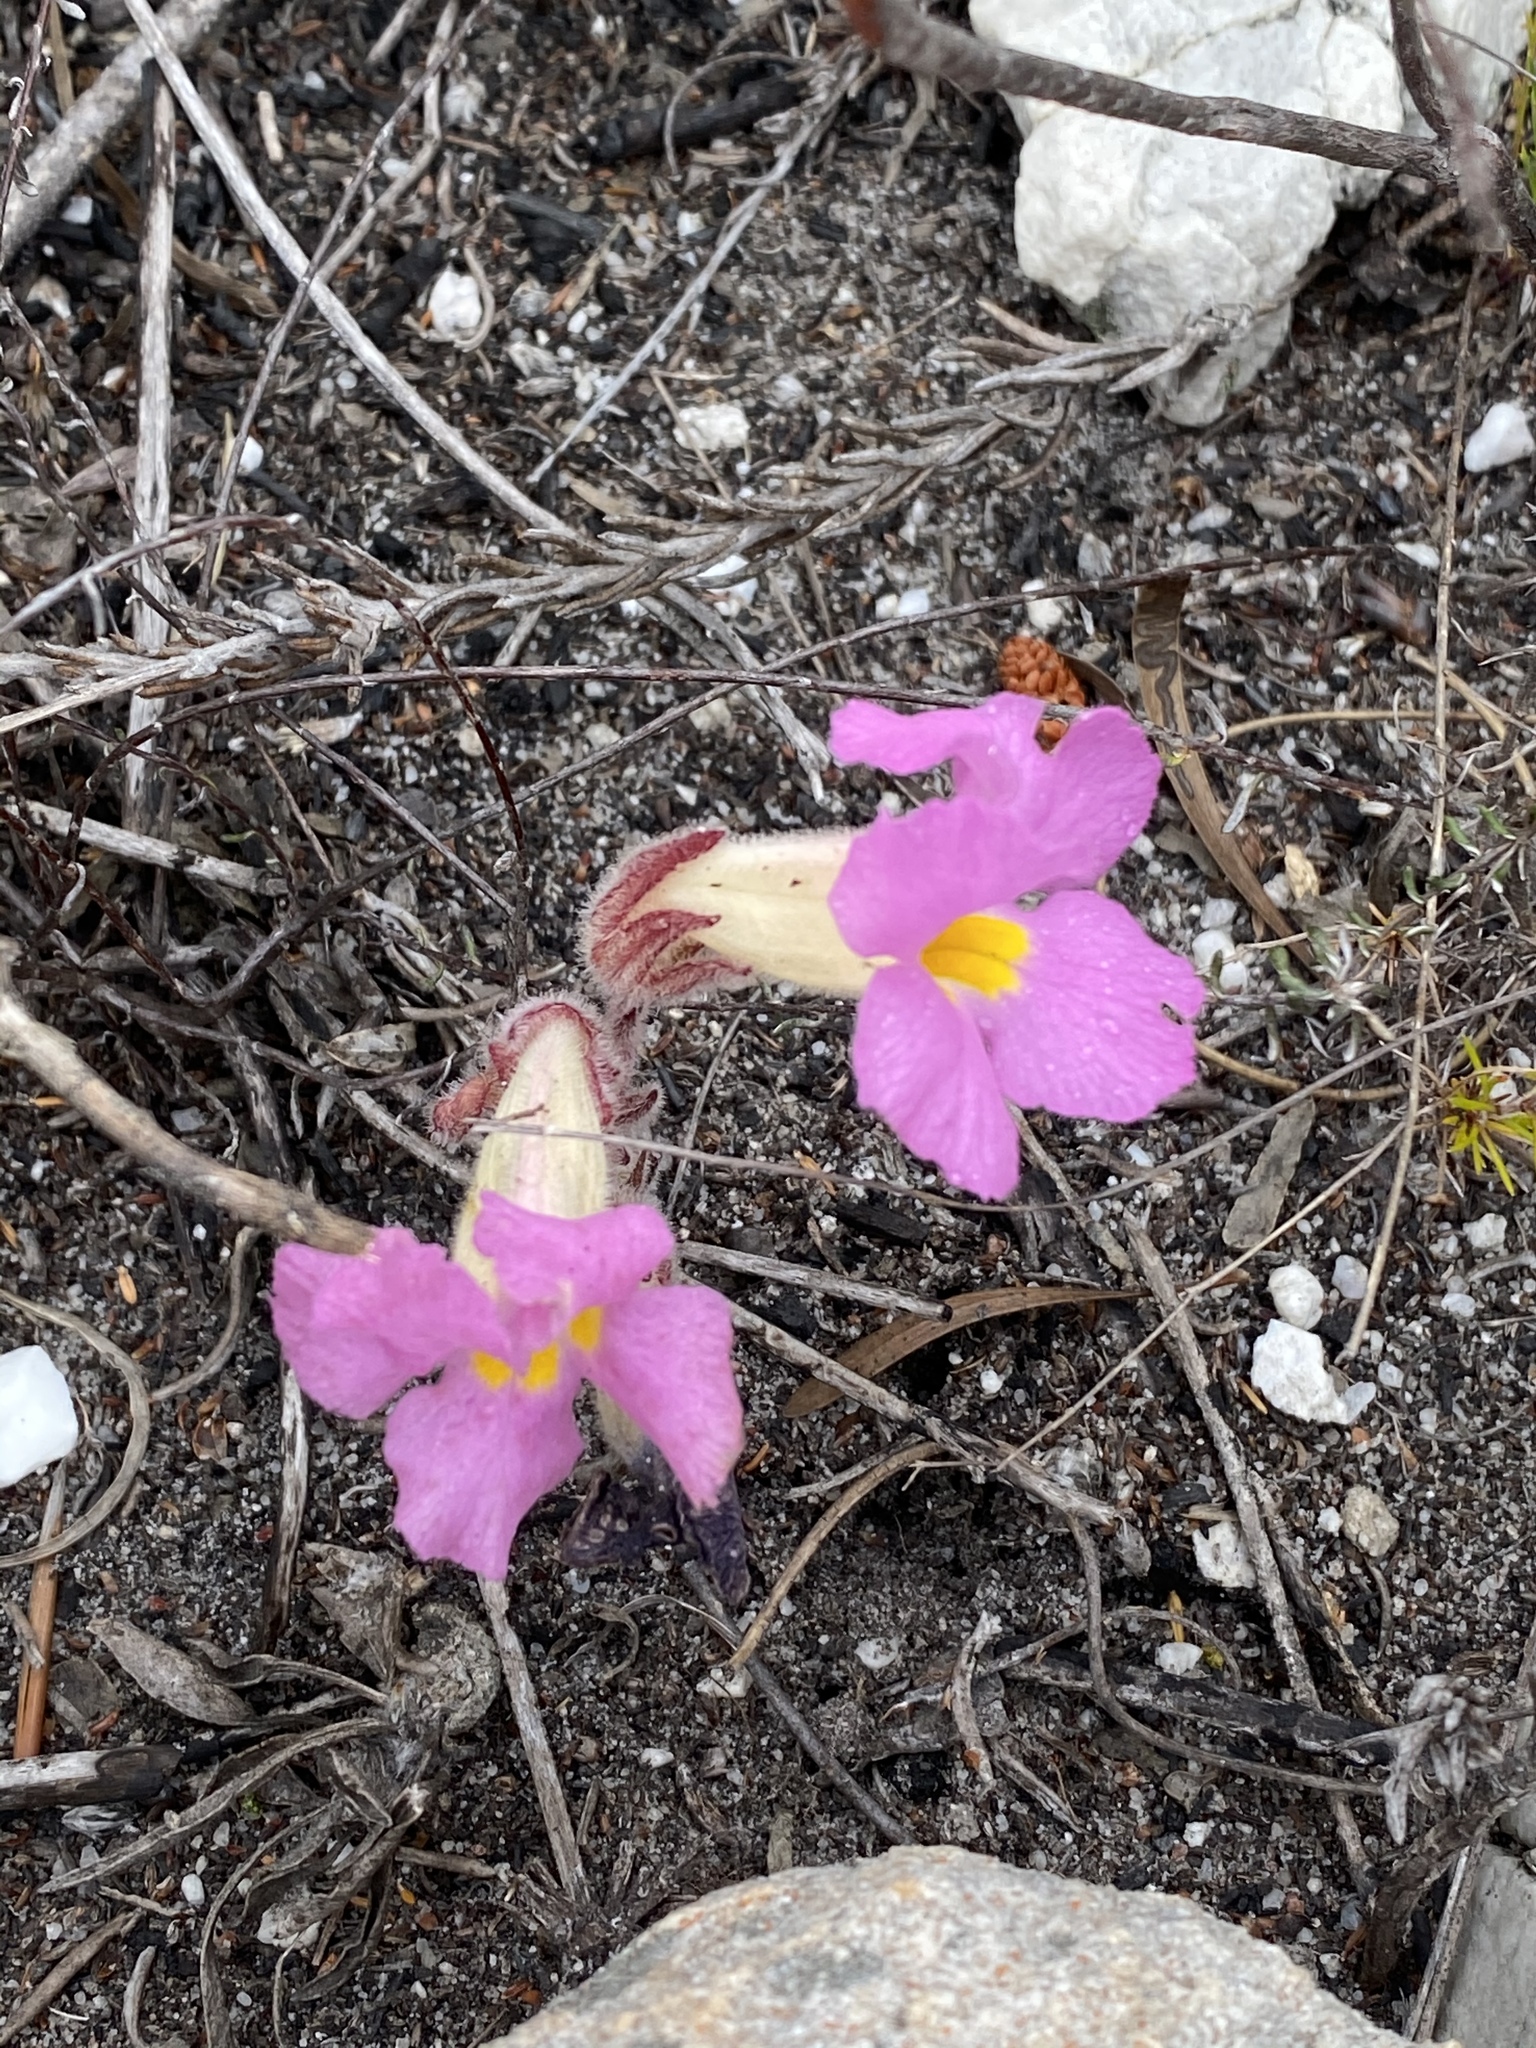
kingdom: Plantae
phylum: Tracheophyta
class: Magnoliopsida
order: Lamiales
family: Orobanchaceae
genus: Harveya
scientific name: Harveya purpurea
